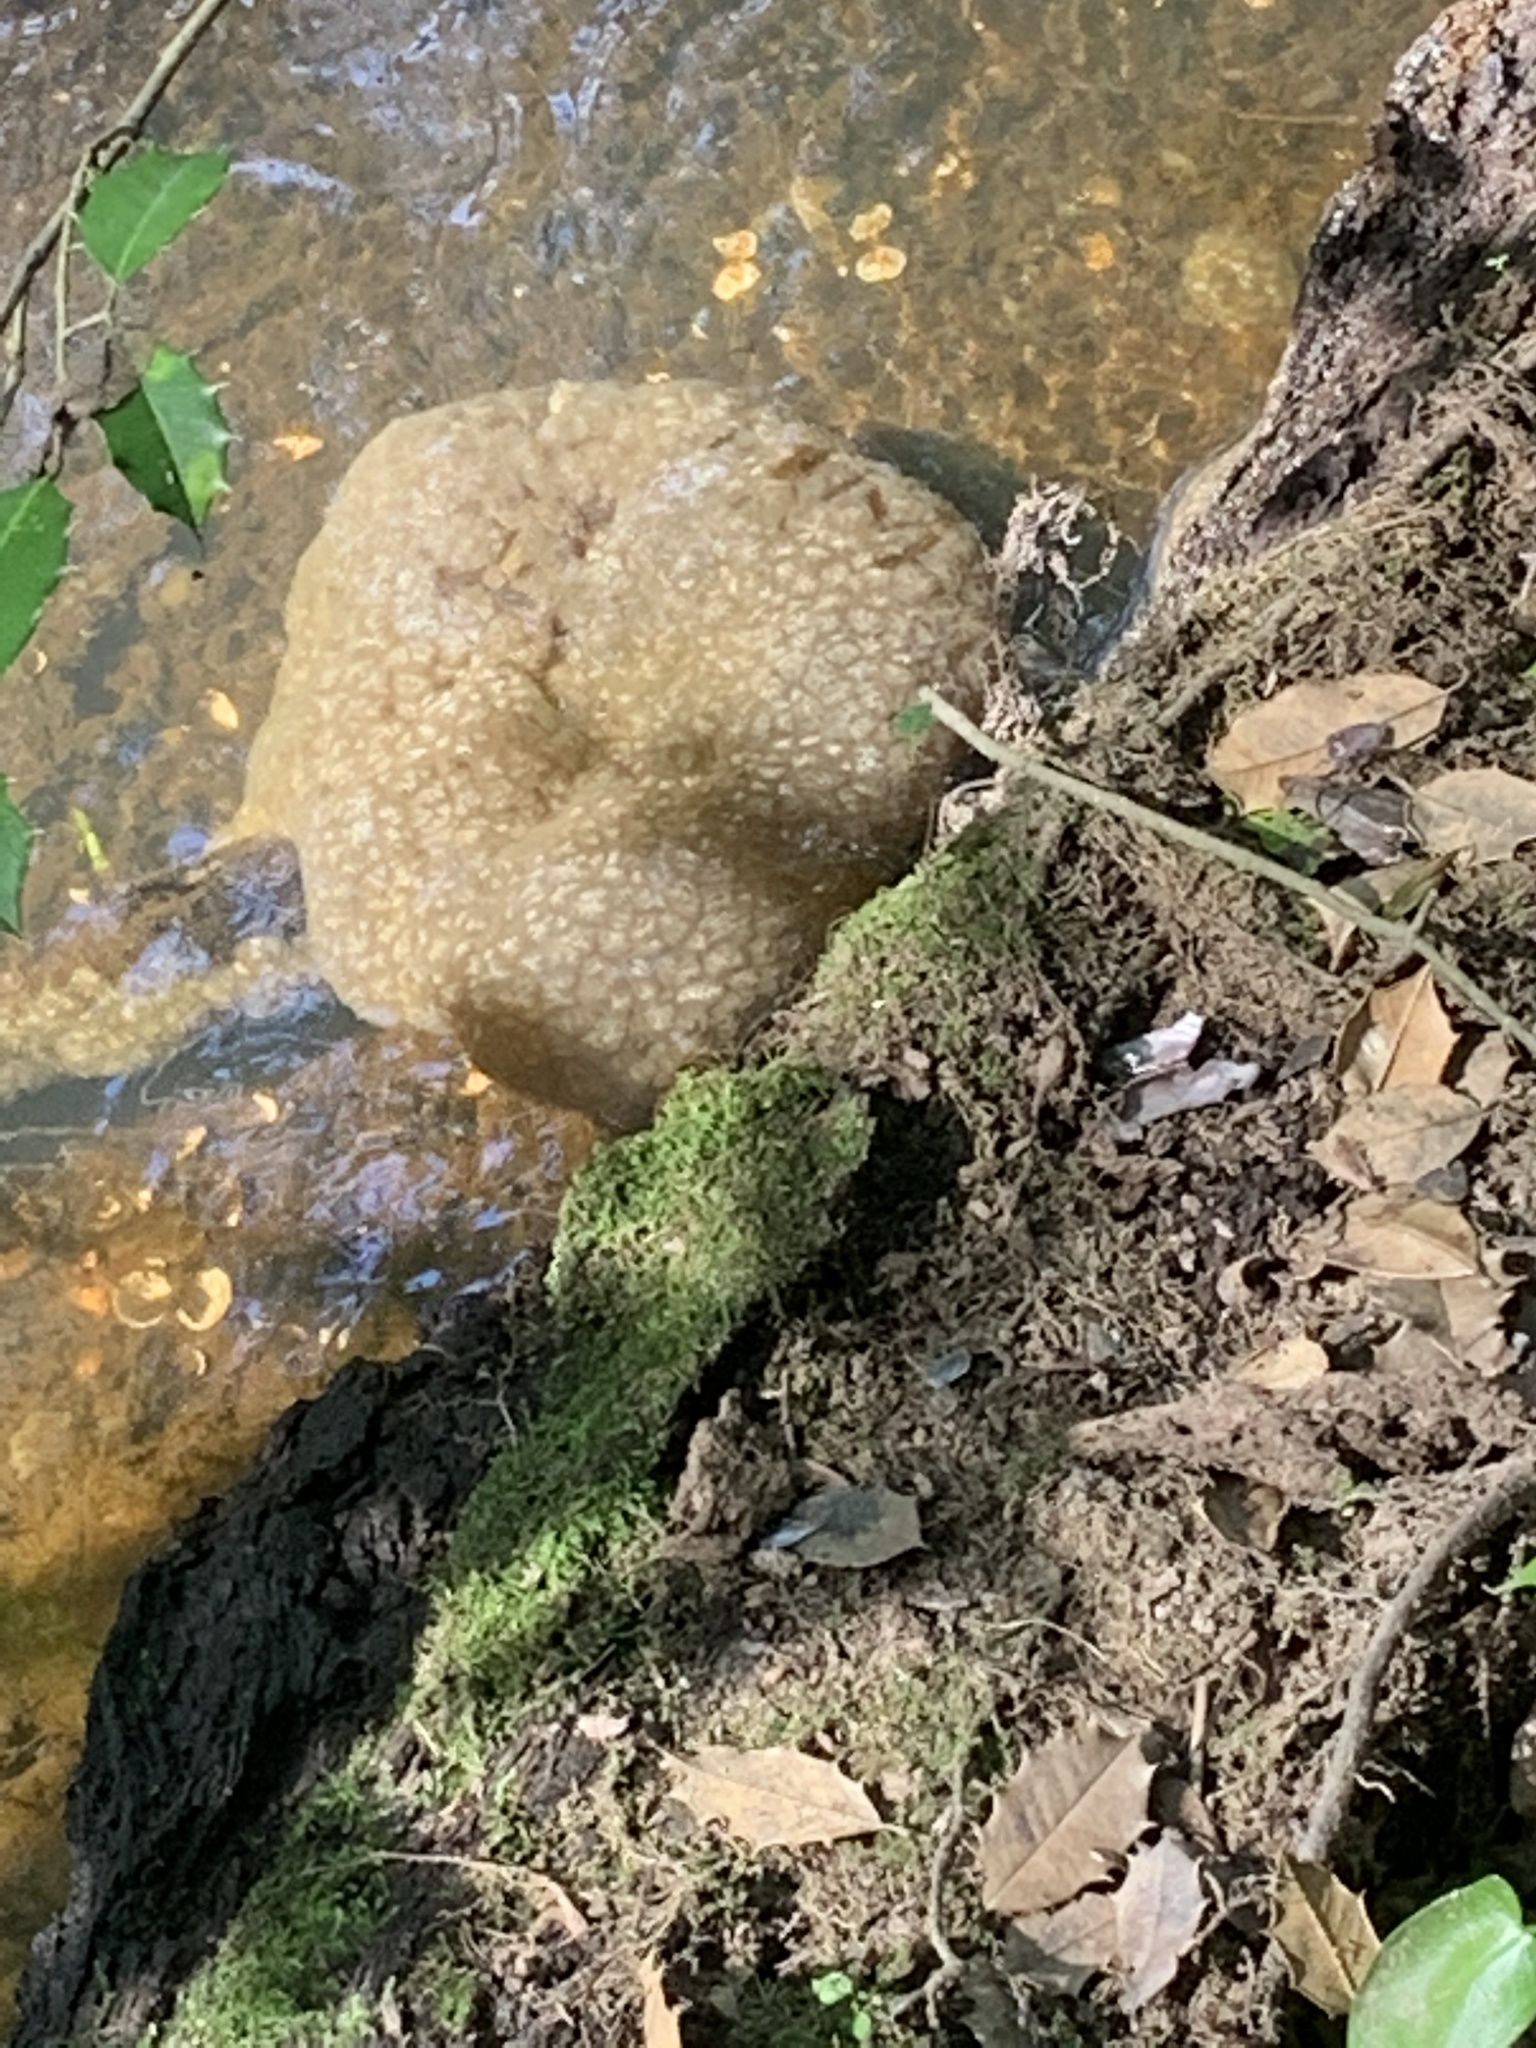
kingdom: Animalia
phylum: Bryozoa
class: Phylactolaemata
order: Plumatellida
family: Pectinatellidae
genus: Pectinatella
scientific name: Pectinatella magnifica
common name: Magnificent bryozoan
